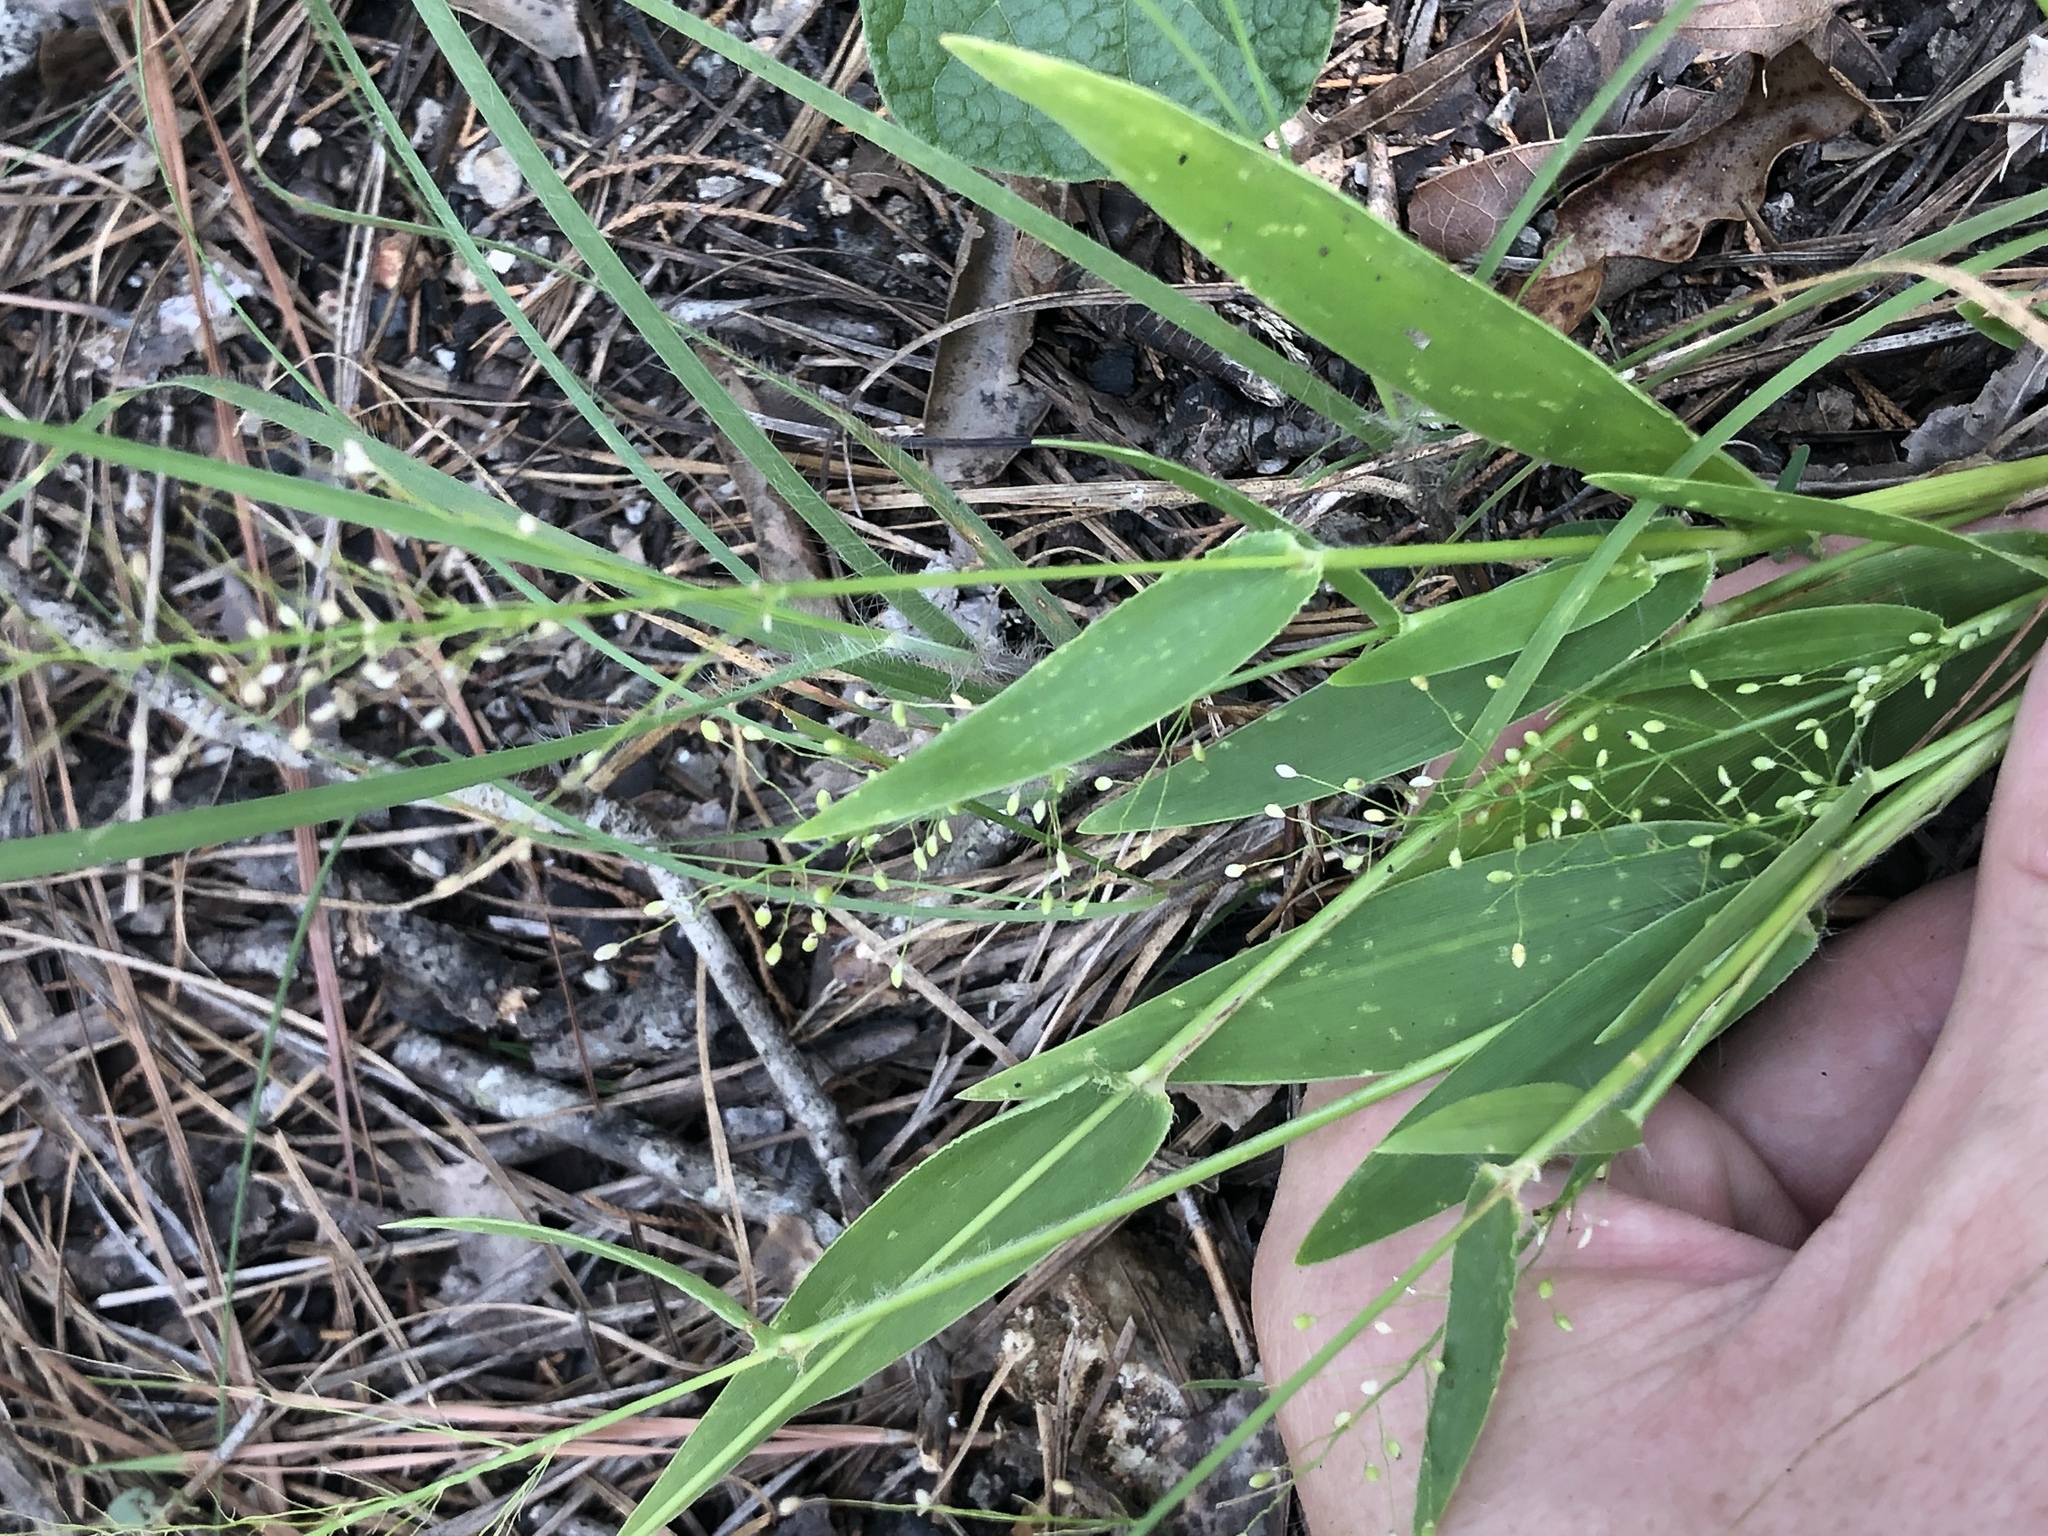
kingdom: Plantae
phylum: Tracheophyta
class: Liliopsida
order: Poales
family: Poaceae
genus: Dichanthelium
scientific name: Dichanthelium sphaerocarpon
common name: Round-fruited panicgrass
